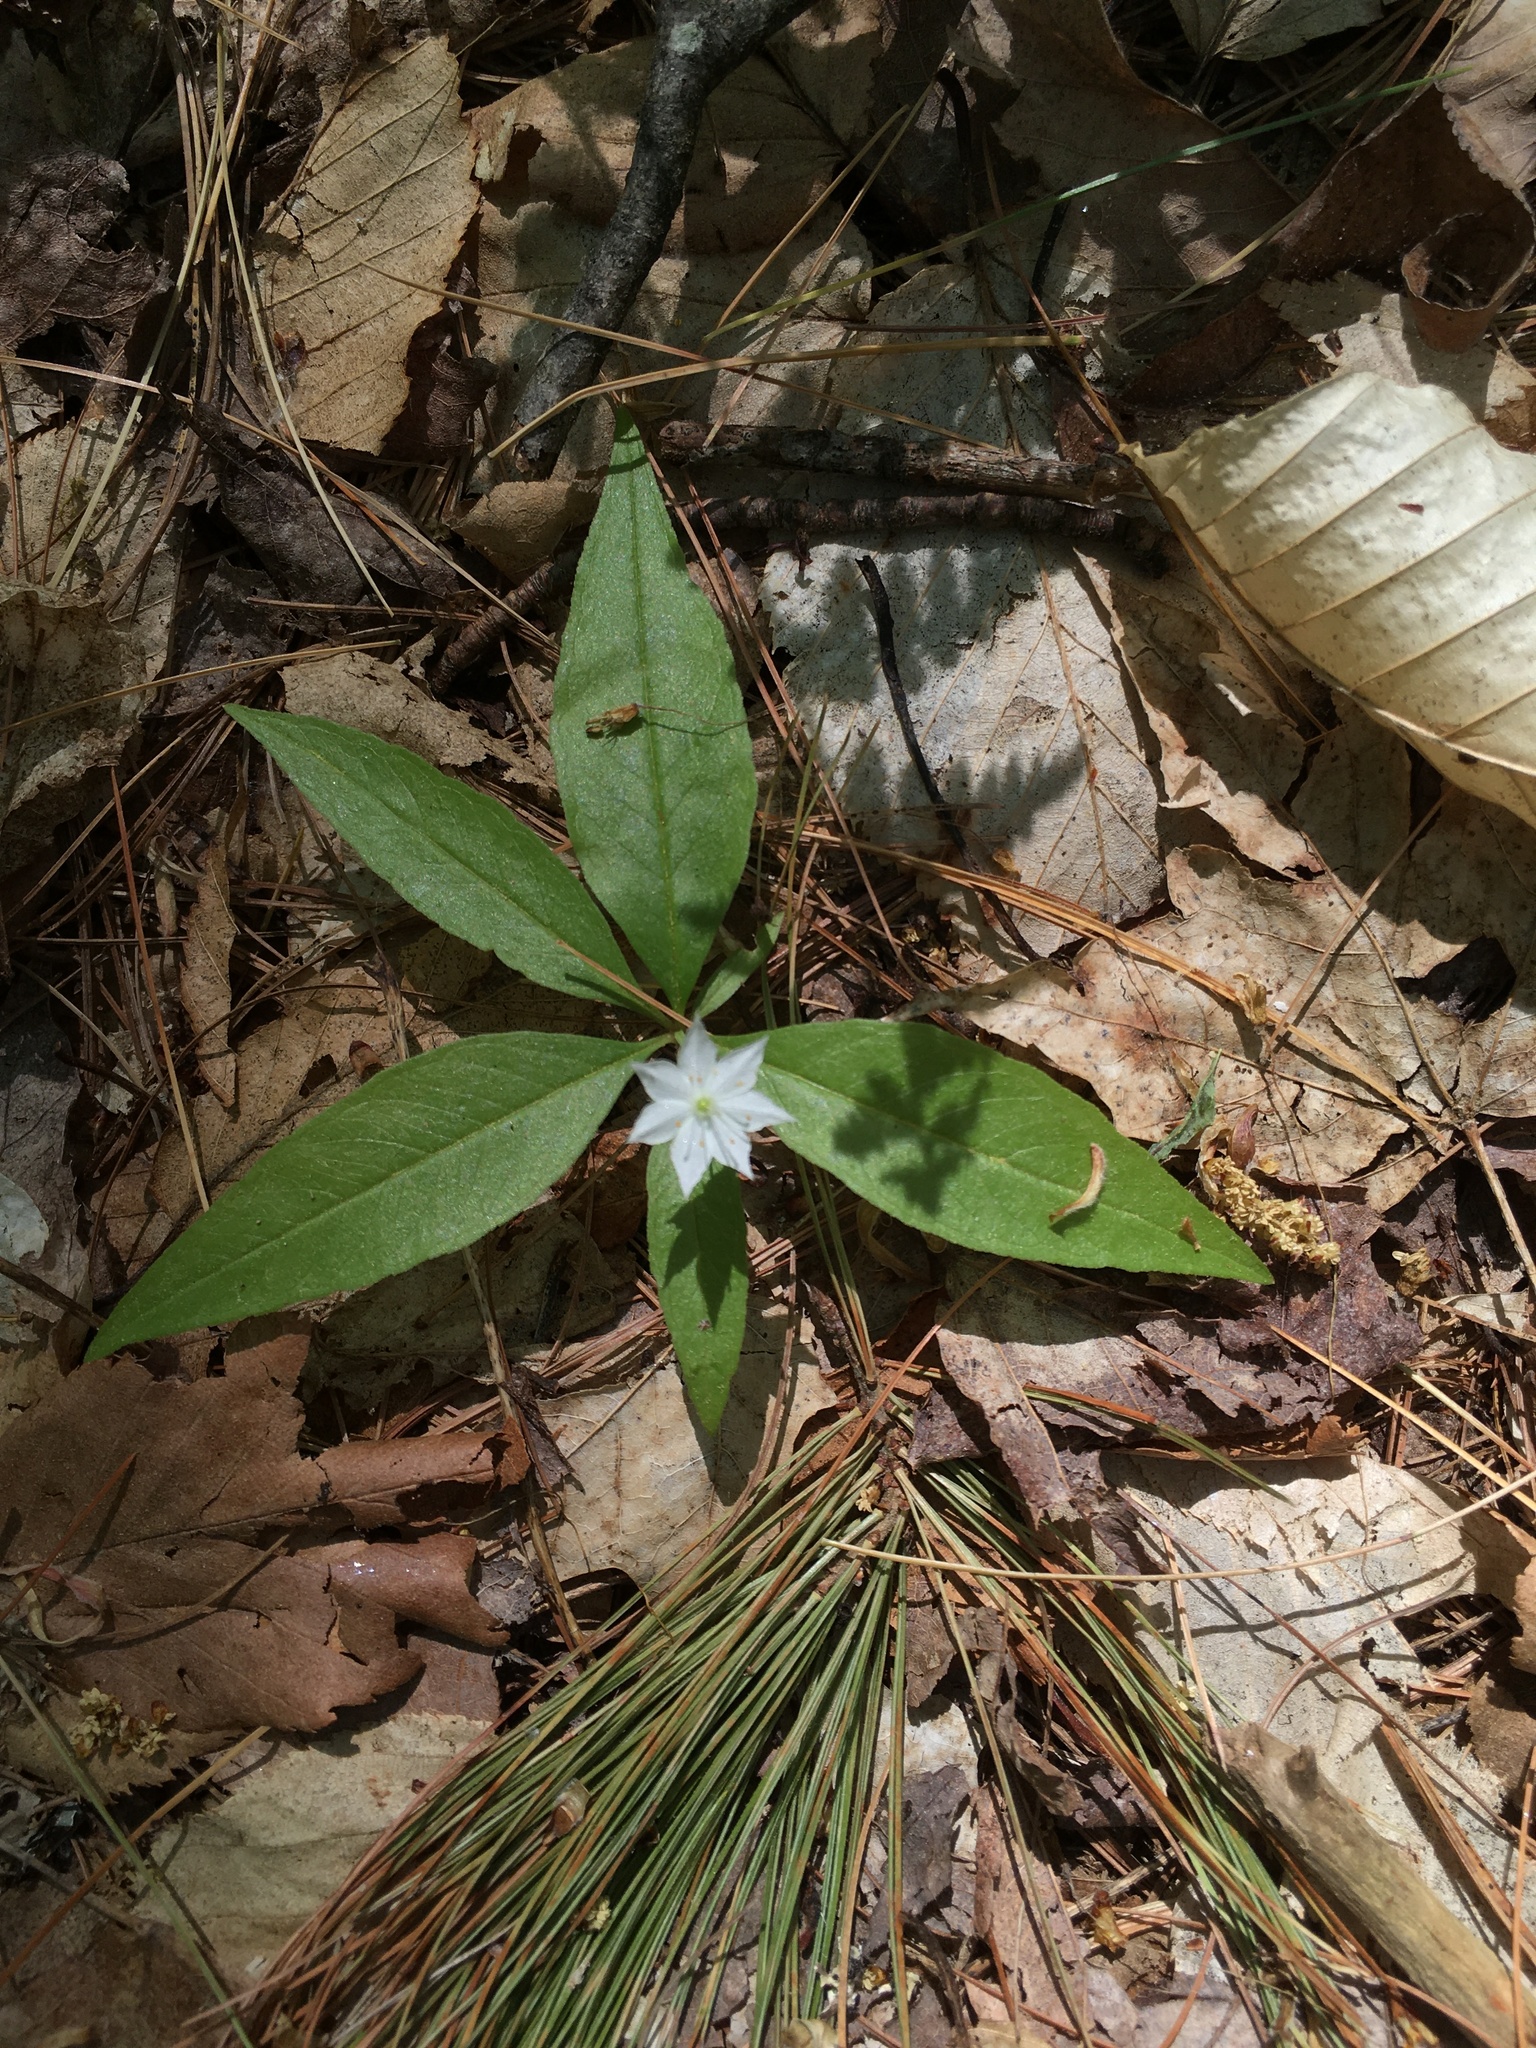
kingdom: Plantae
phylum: Tracheophyta
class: Magnoliopsida
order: Ericales
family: Primulaceae
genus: Lysimachia
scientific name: Lysimachia borealis
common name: American starflower
